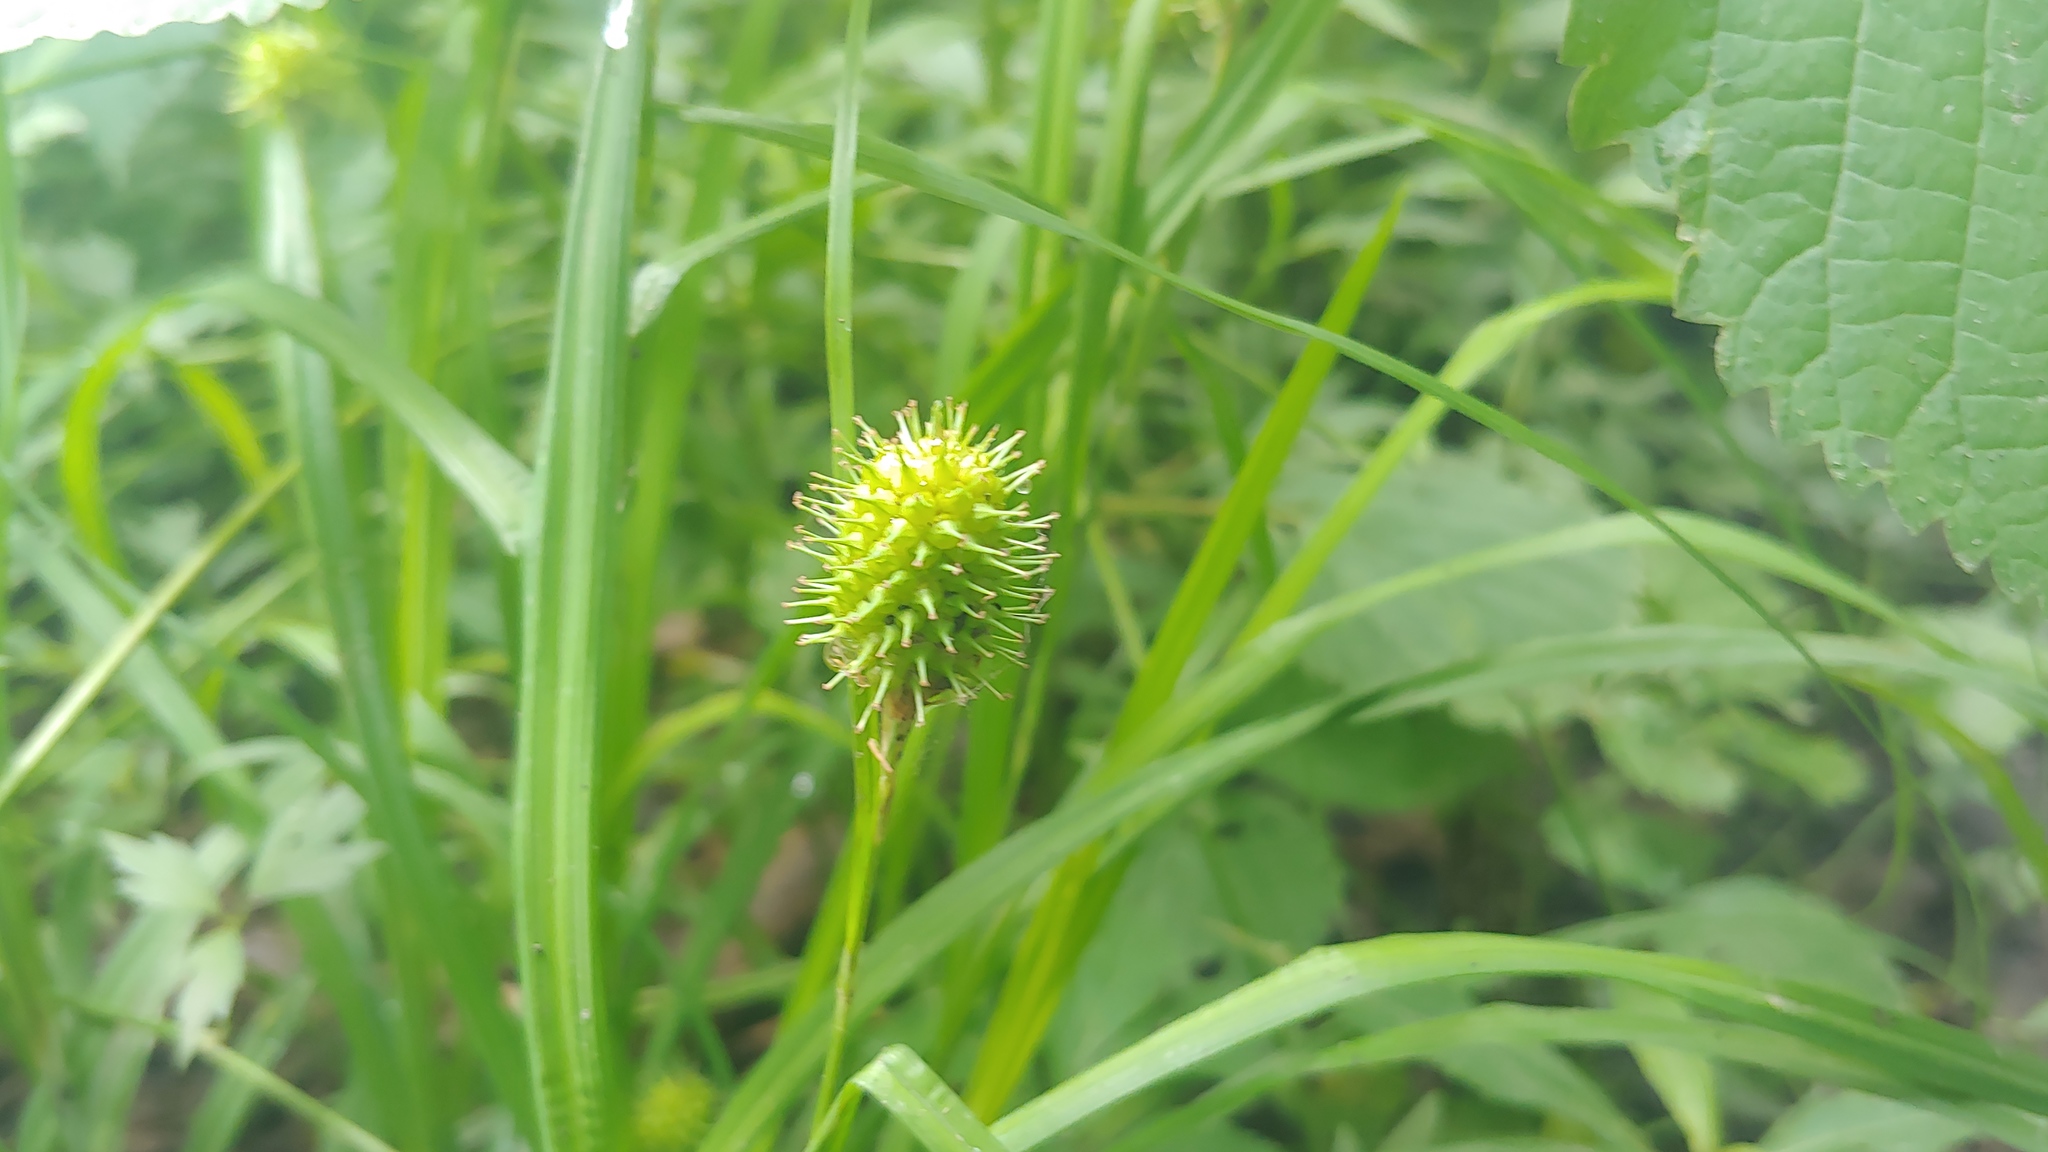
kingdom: Plantae
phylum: Tracheophyta
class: Liliopsida
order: Poales
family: Cyperaceae
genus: Carex
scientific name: Carex squarrosa
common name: Narrow-leaved cattail sedge
